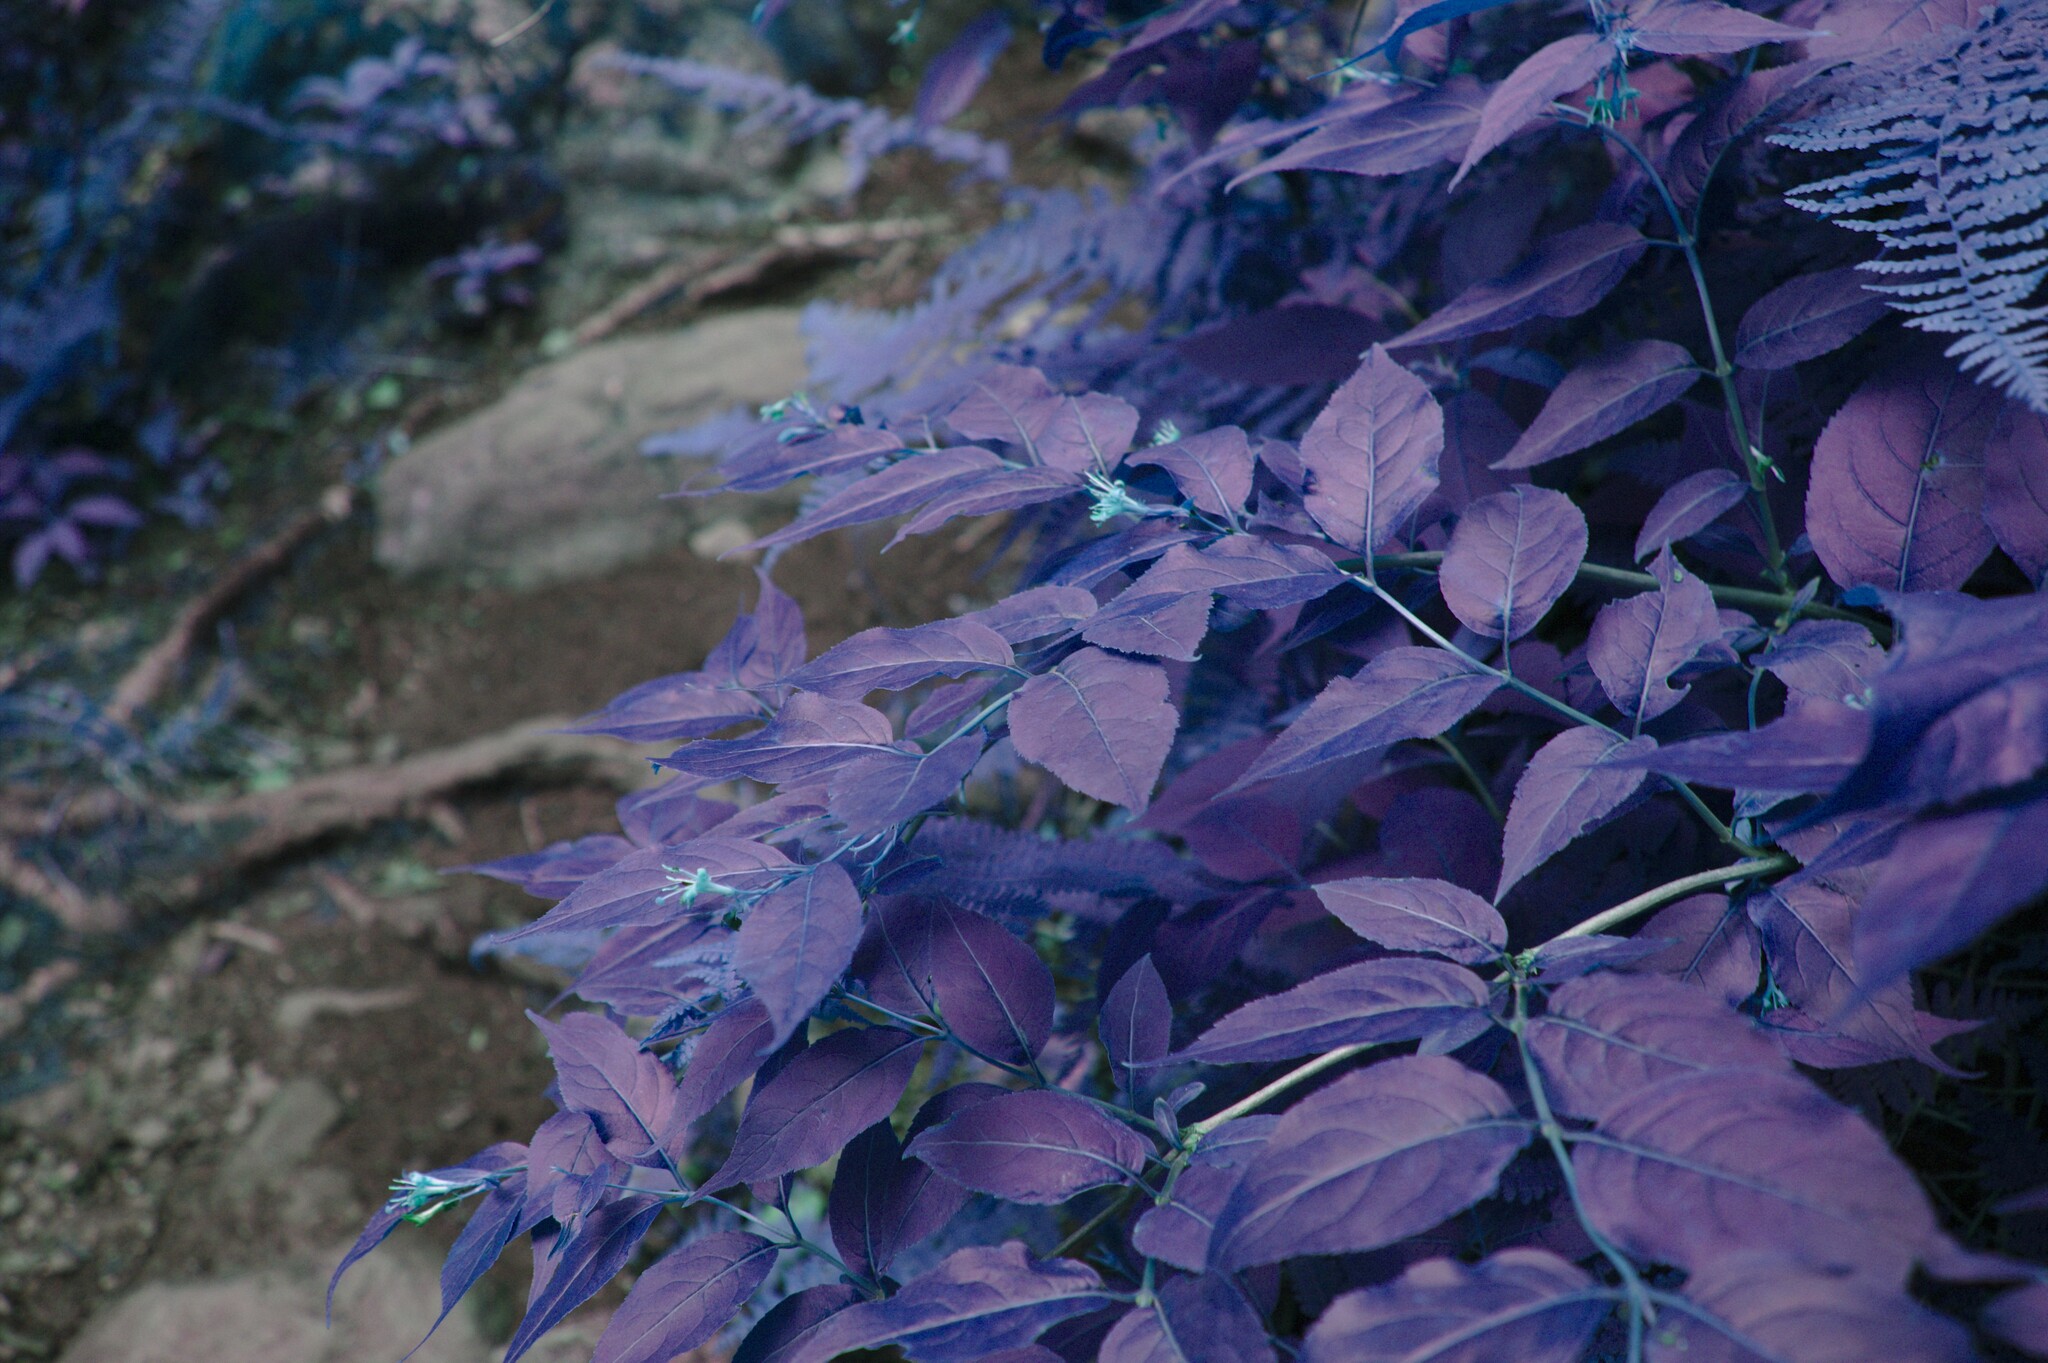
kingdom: Plantae
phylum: Tracheophyta
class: Magnoliopsida
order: Dipsacales
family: Caprifoliaceae
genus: Diervilla
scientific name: Diervilla lonicera
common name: Bush-honeysuckle
